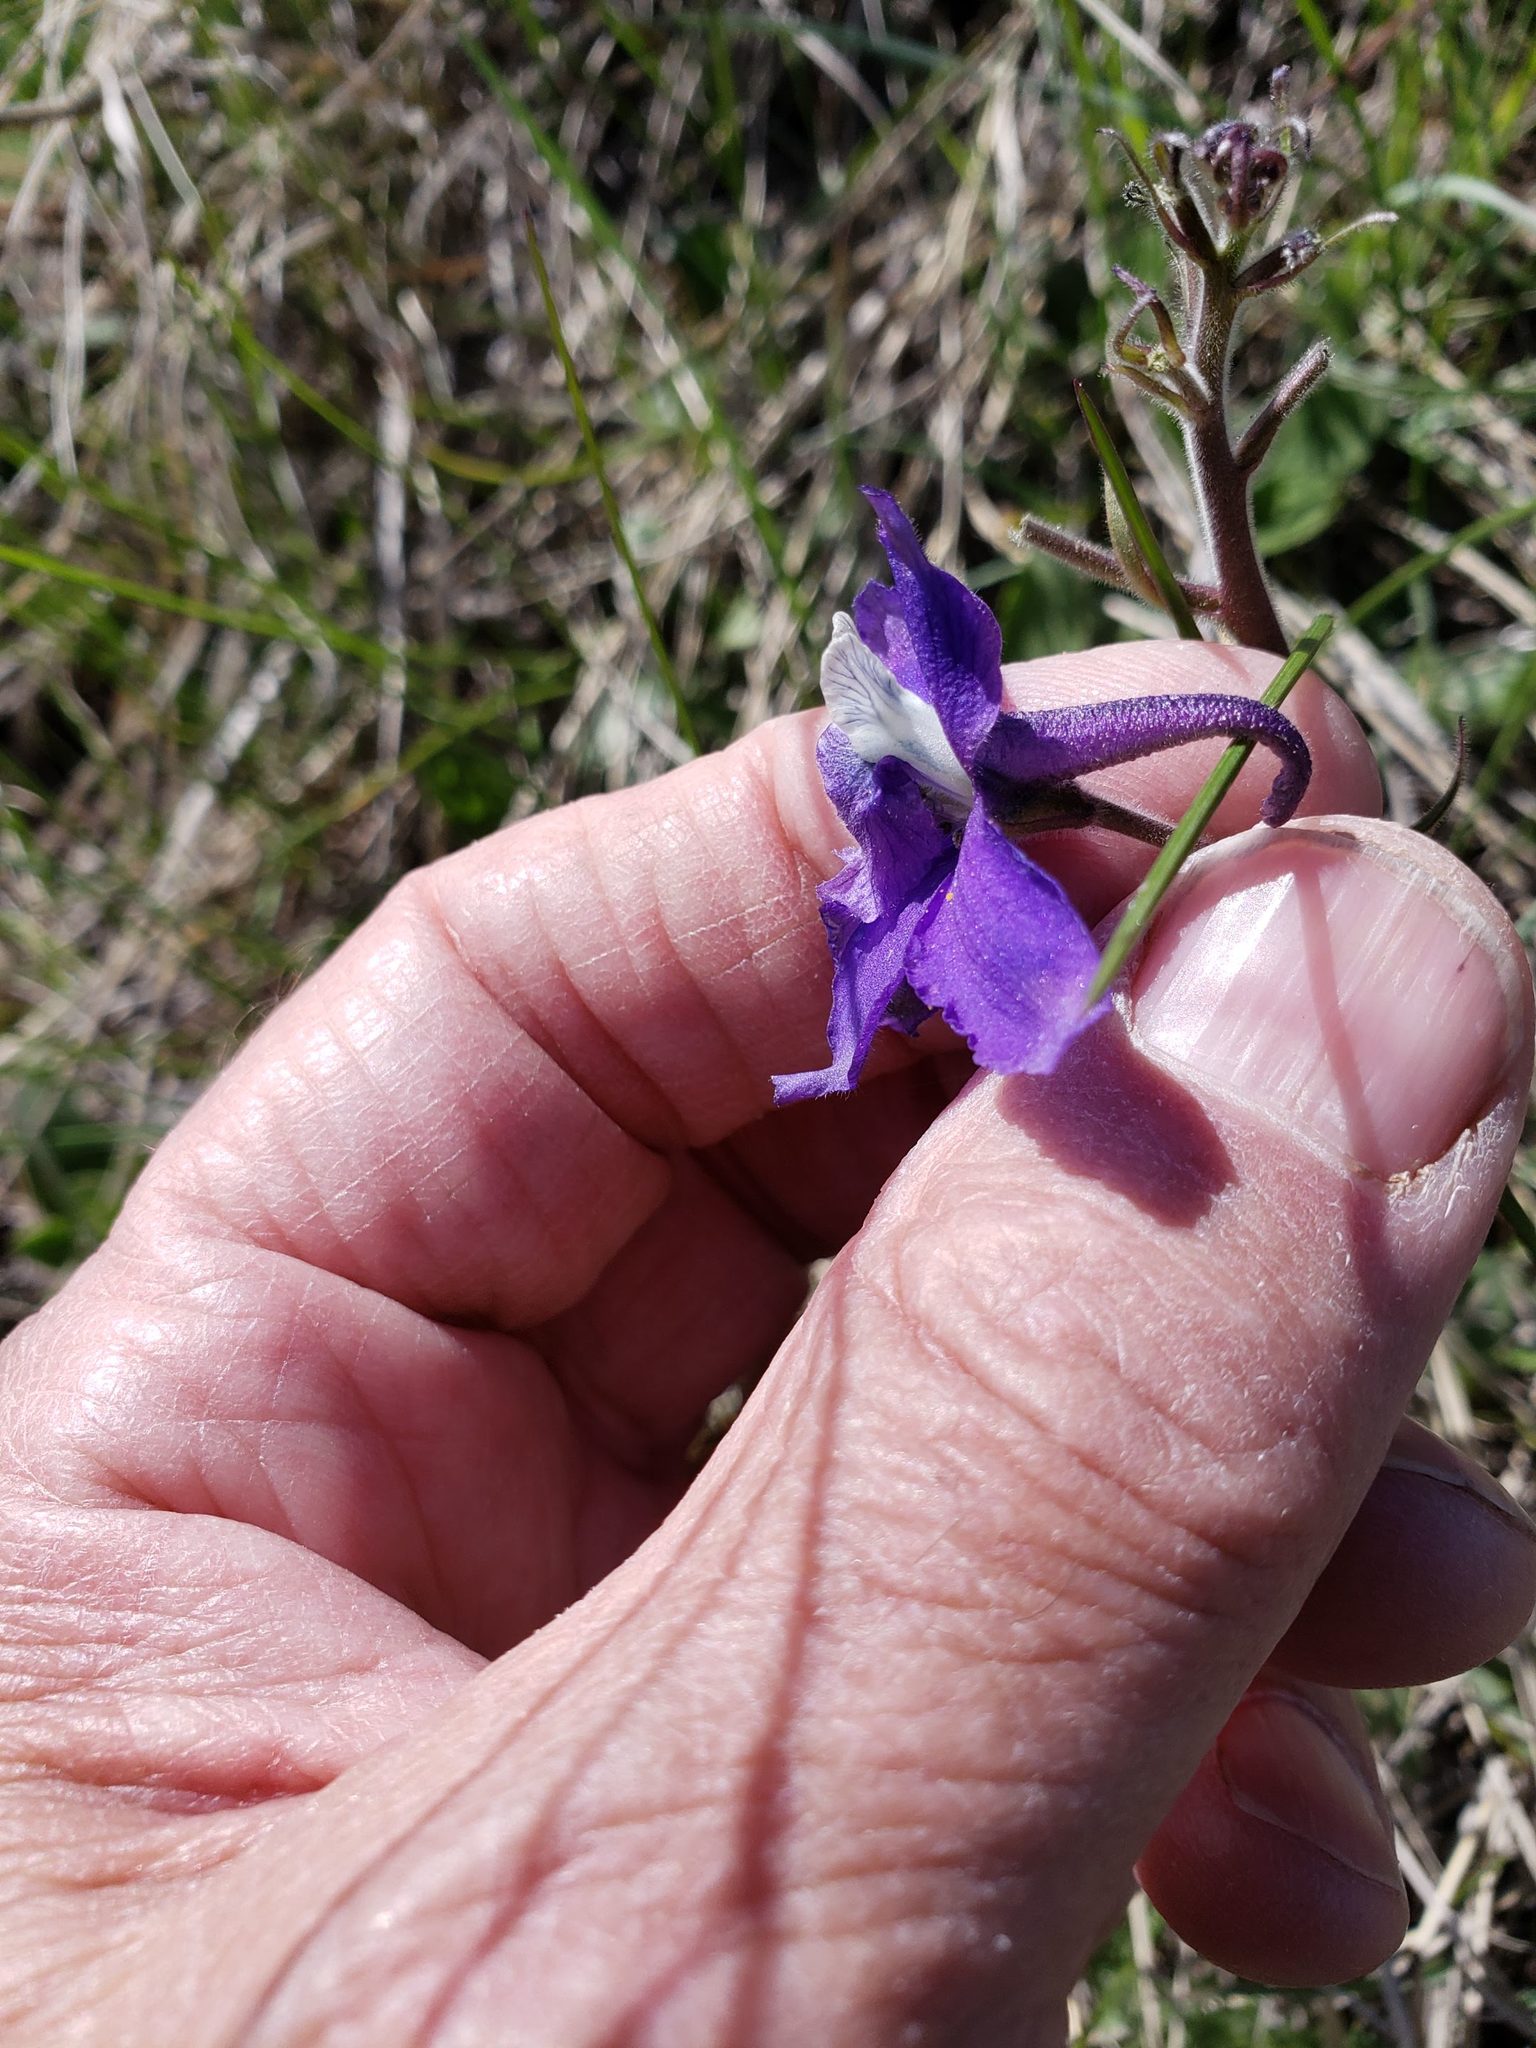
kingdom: Plantae
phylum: Tracheophyta
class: Magnoliopsida
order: Ranunculales
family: Ranunculaceae
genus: Delphinium
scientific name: Delphinium bicolor
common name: Low larkspur
